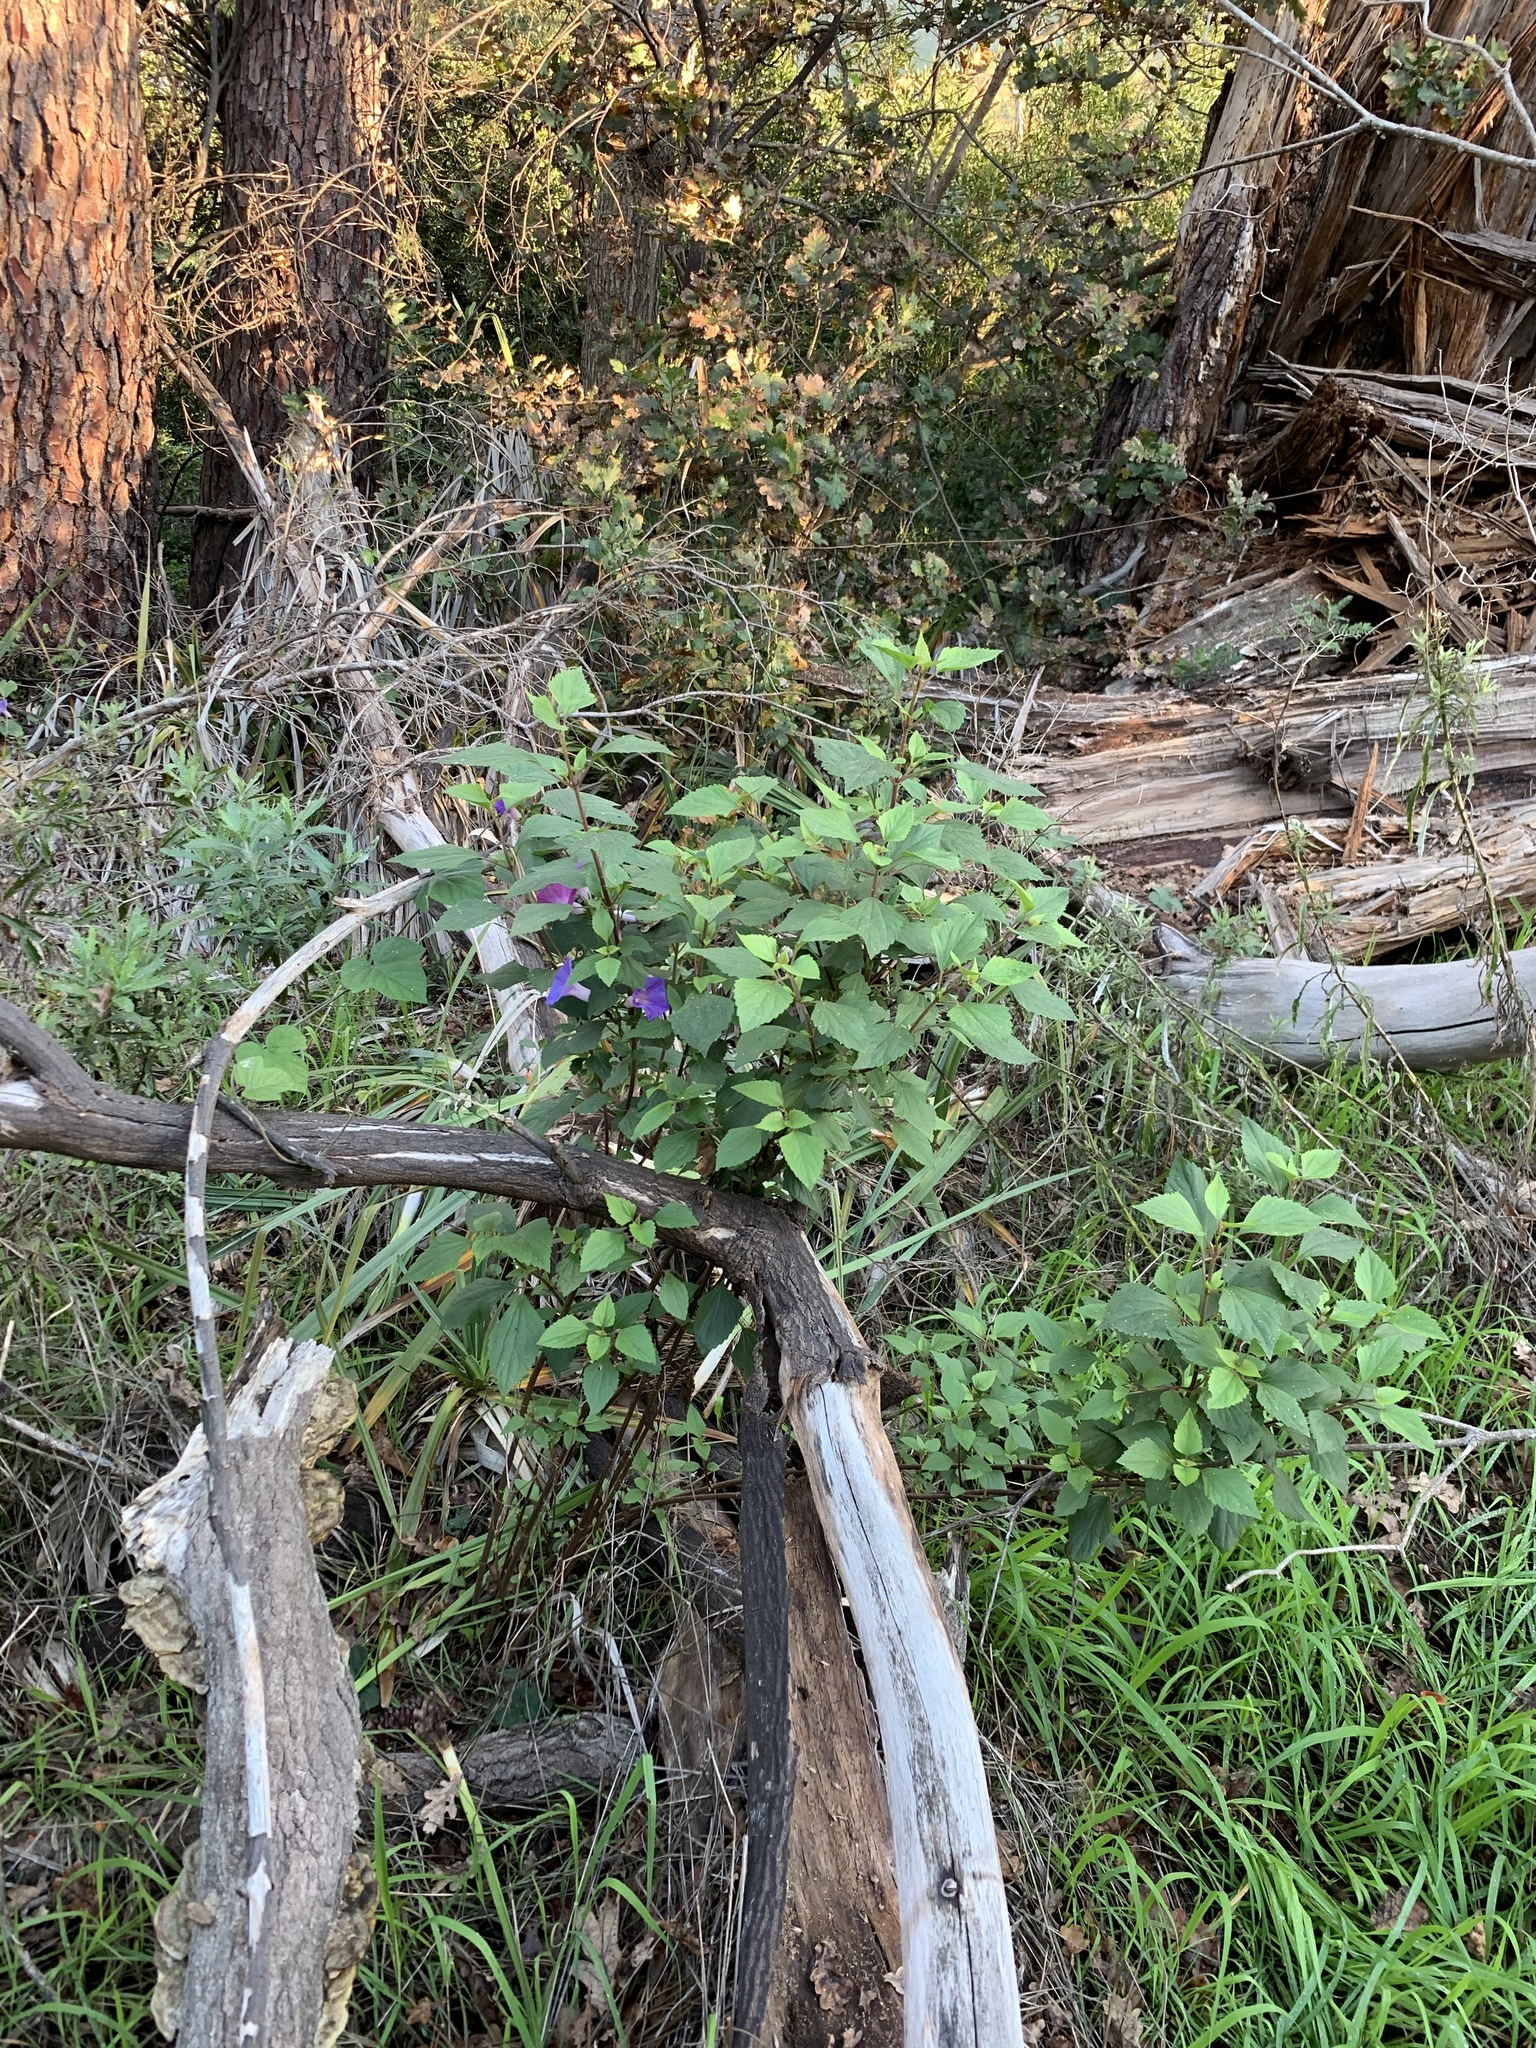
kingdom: Plantae
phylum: Tracheophyta
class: Magnoliopsida
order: Asterales
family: Asteraceae
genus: Ageratina
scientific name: Ageratina adenophora
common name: Sticky snakeroot
